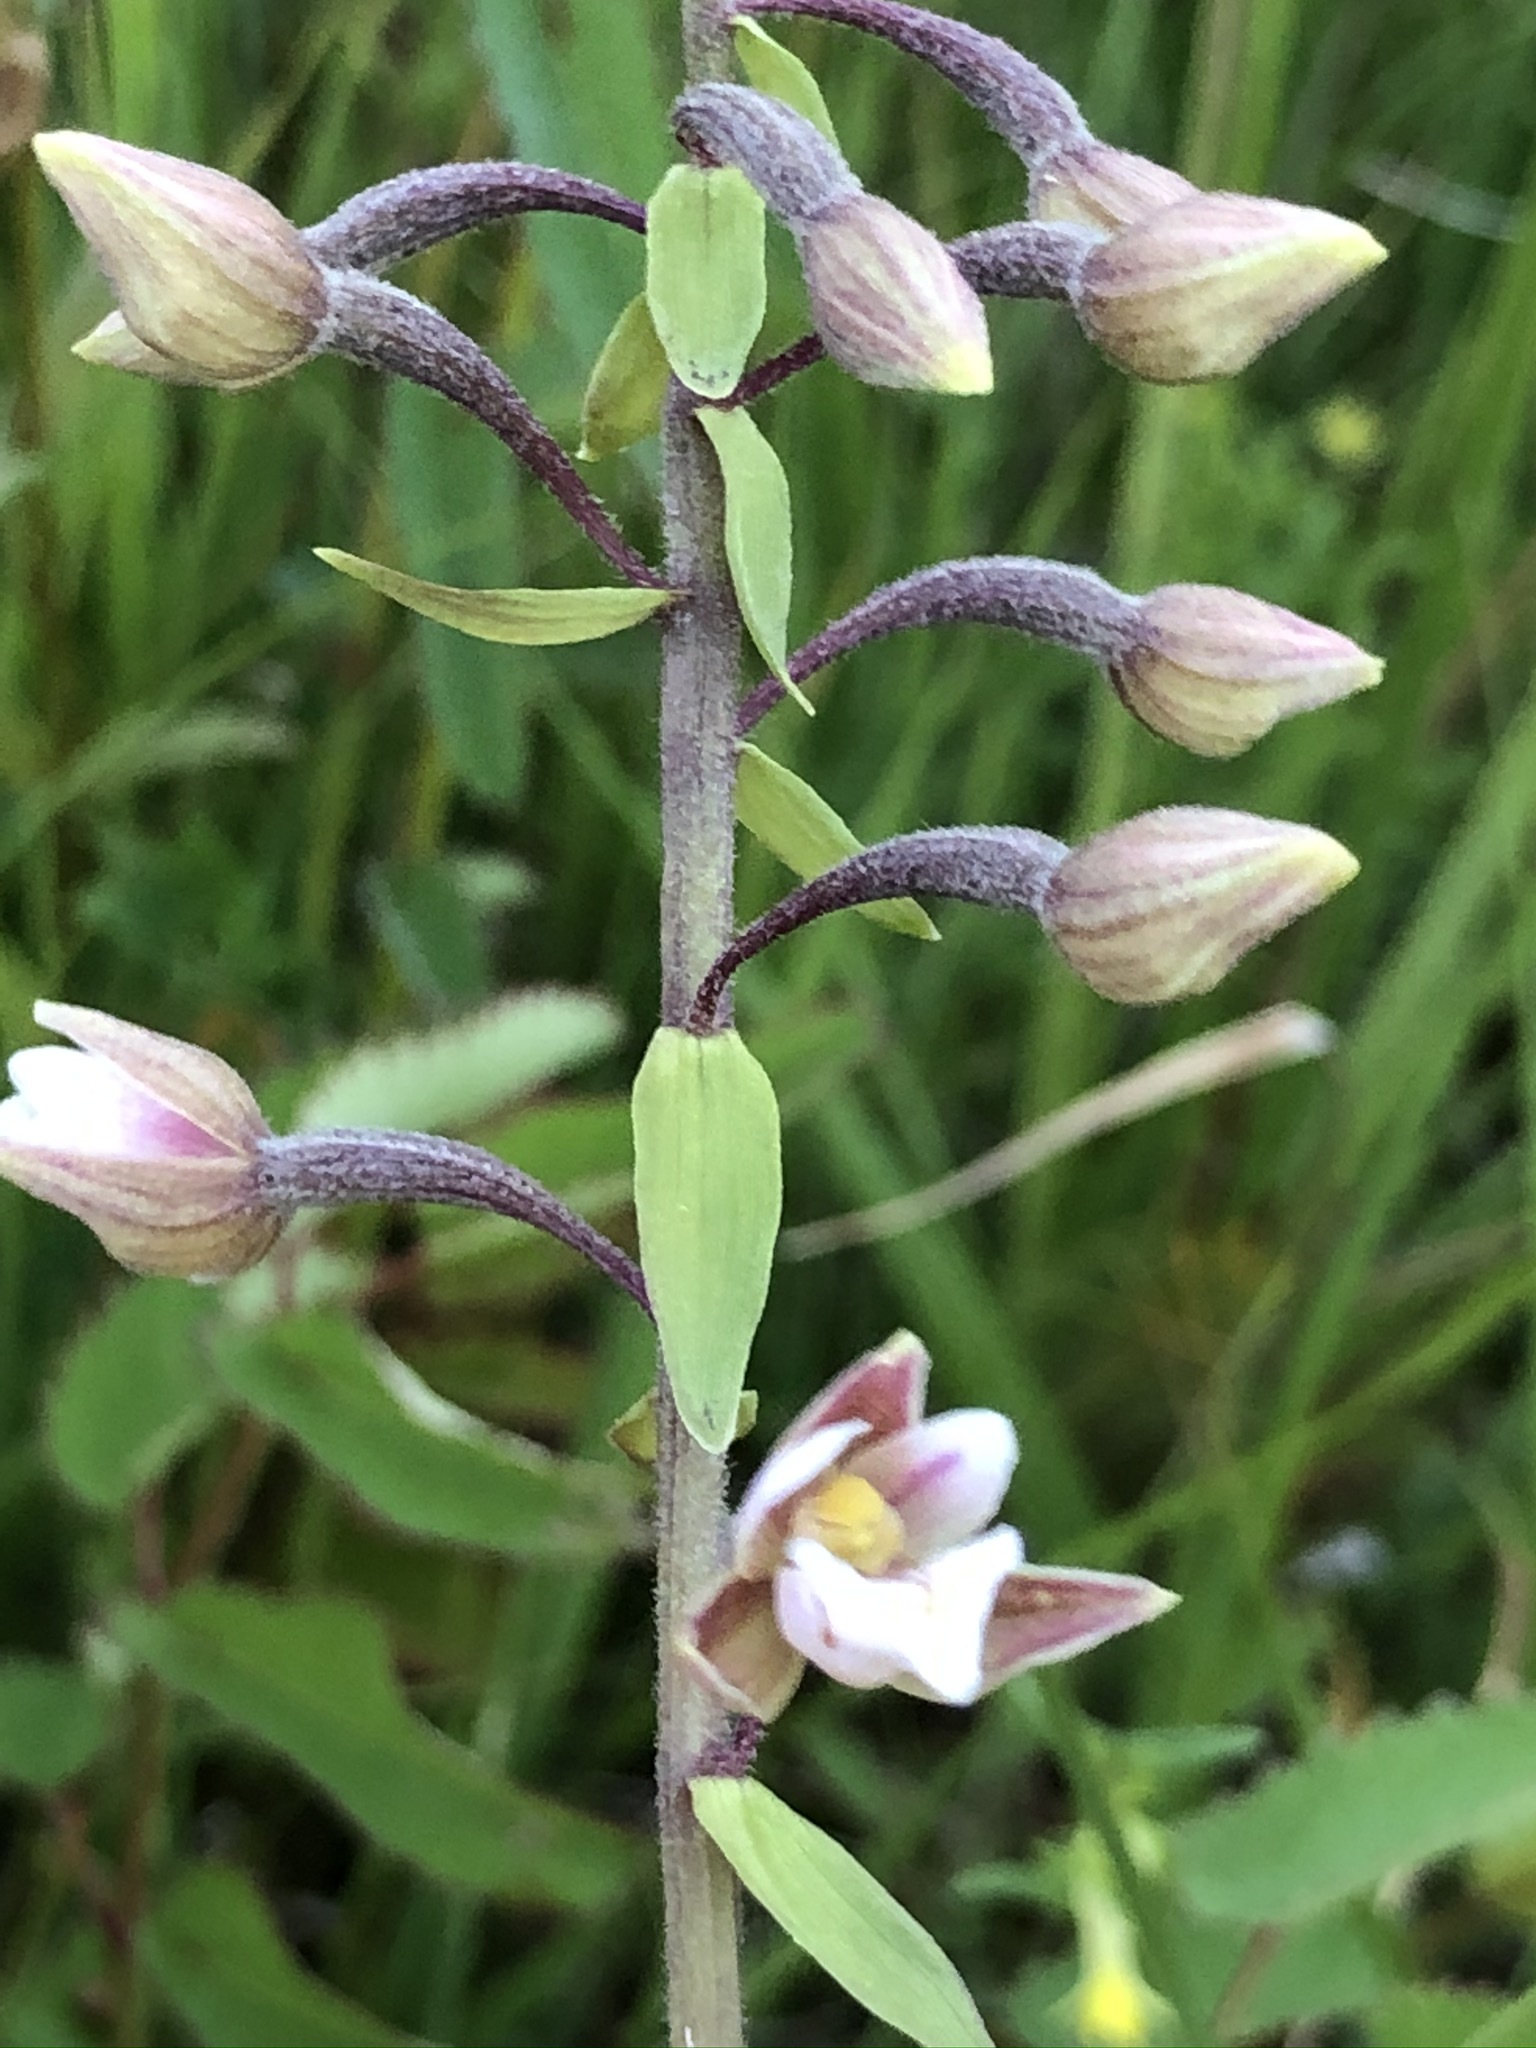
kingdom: Plantae
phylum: Tracheophyta
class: Liliopsida
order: Asparagales
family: Orchidaceae
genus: Epipactis
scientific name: Epipactis palustris
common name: Marsh helleborine
